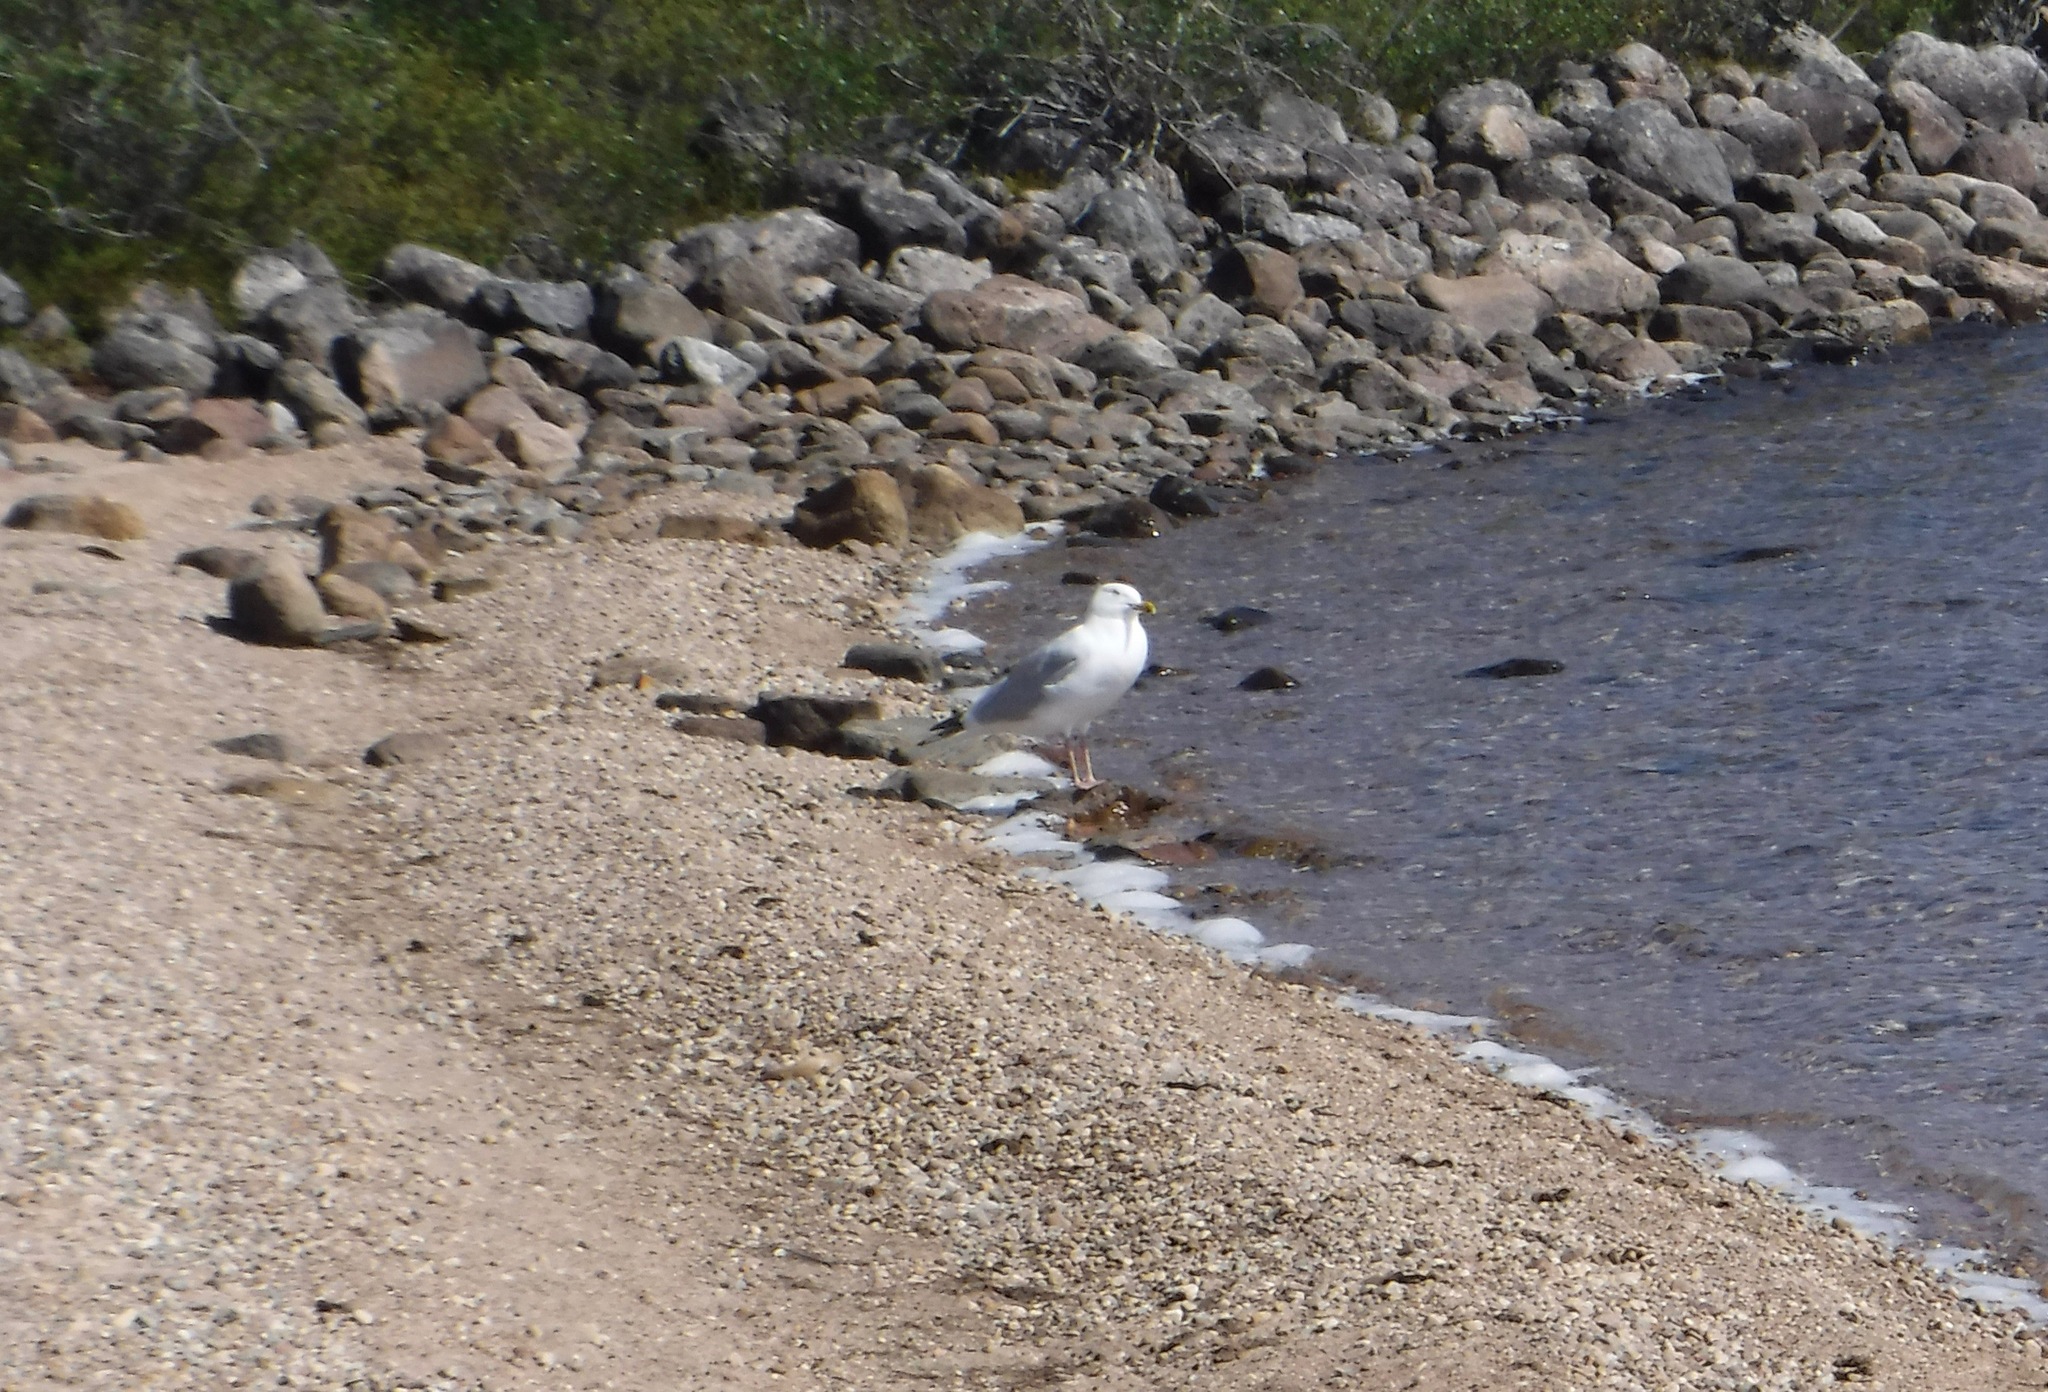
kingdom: Animalia
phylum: Chordata
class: Aves
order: Charadriiformes
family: Laridae
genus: Larus
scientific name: Larus smithsonianus
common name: American herring gull
